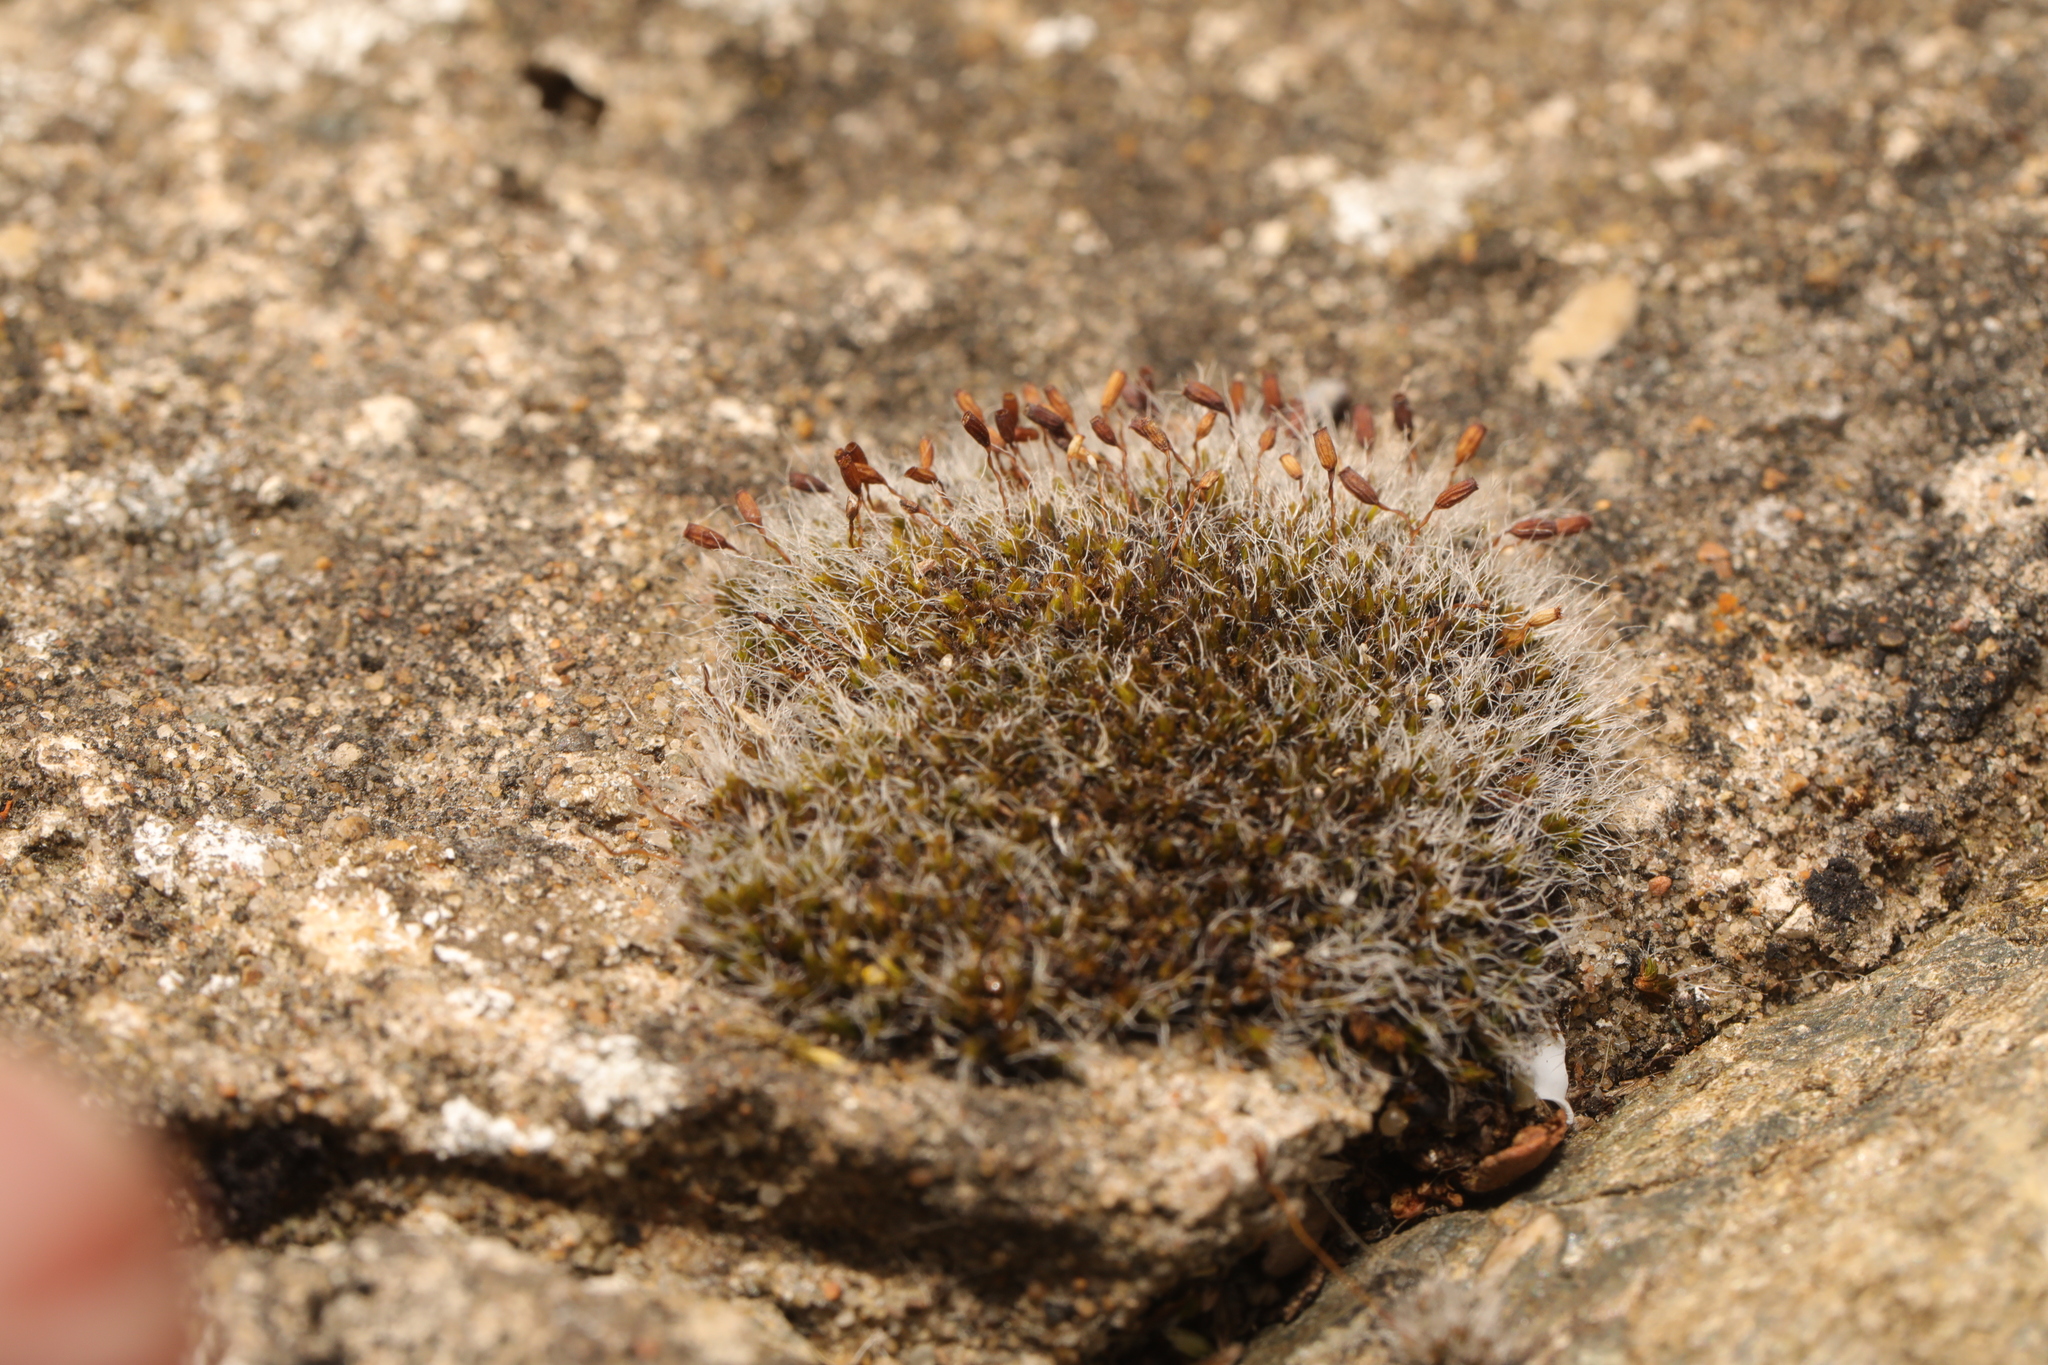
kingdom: Plantae
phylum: Bryophyta
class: Bryopsida
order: Grimmiales
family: Grimmiaceae
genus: Grimmia
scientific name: Grimmia pulvinata
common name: Grey-cushioned grimmia
